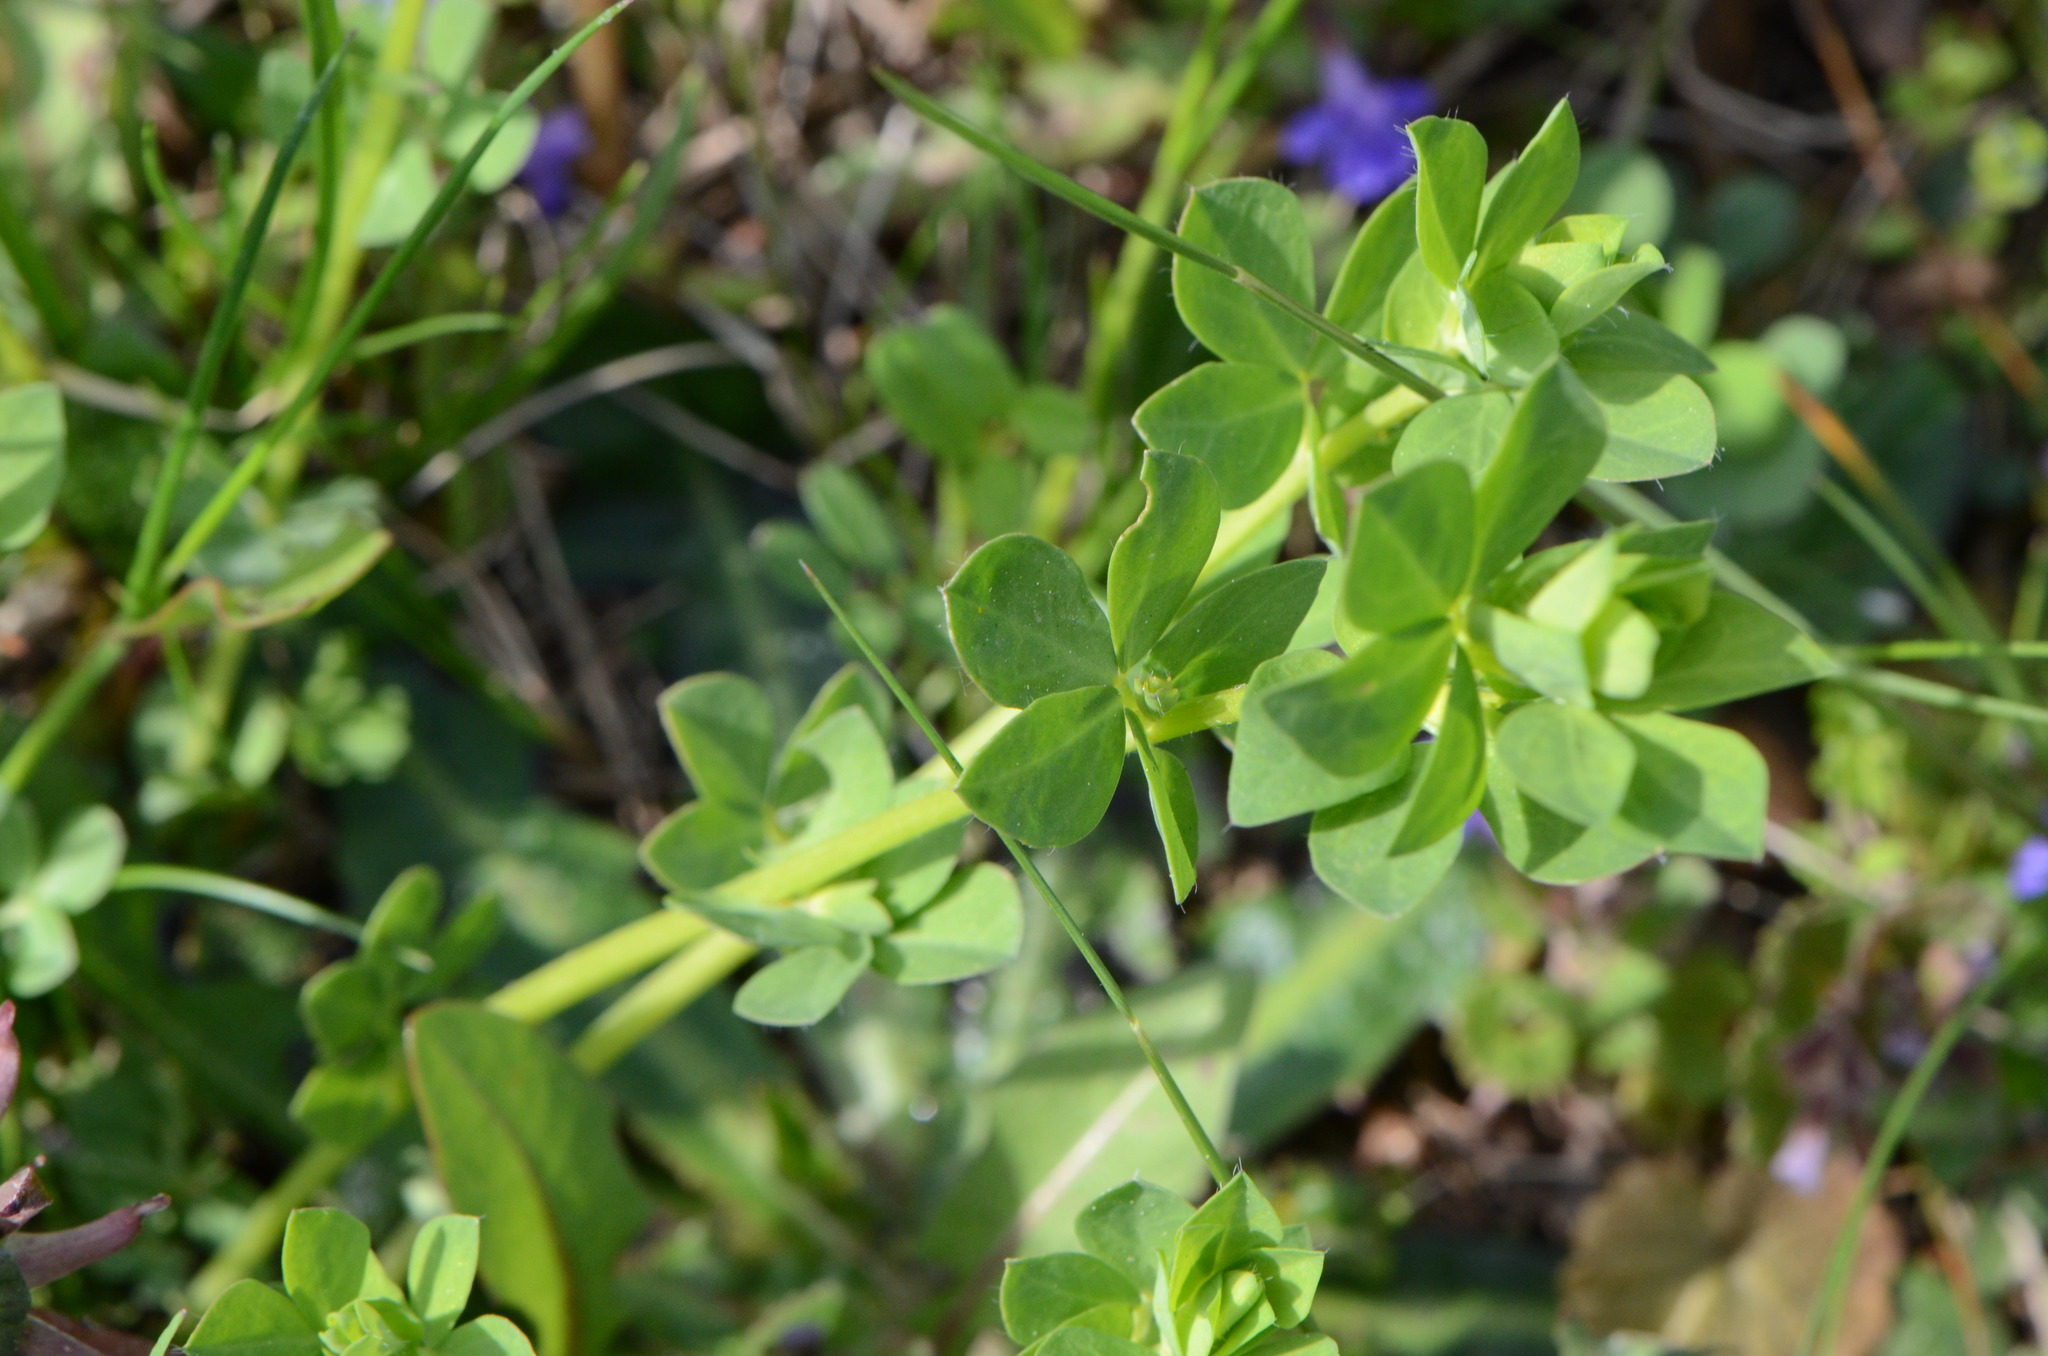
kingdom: Plantae
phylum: Tracheophyta
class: Magnoliopsida
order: Fabales
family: Fabaceae
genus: Lotus
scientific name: Lotus corniculatus
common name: Common bird's-foot-trefoil
